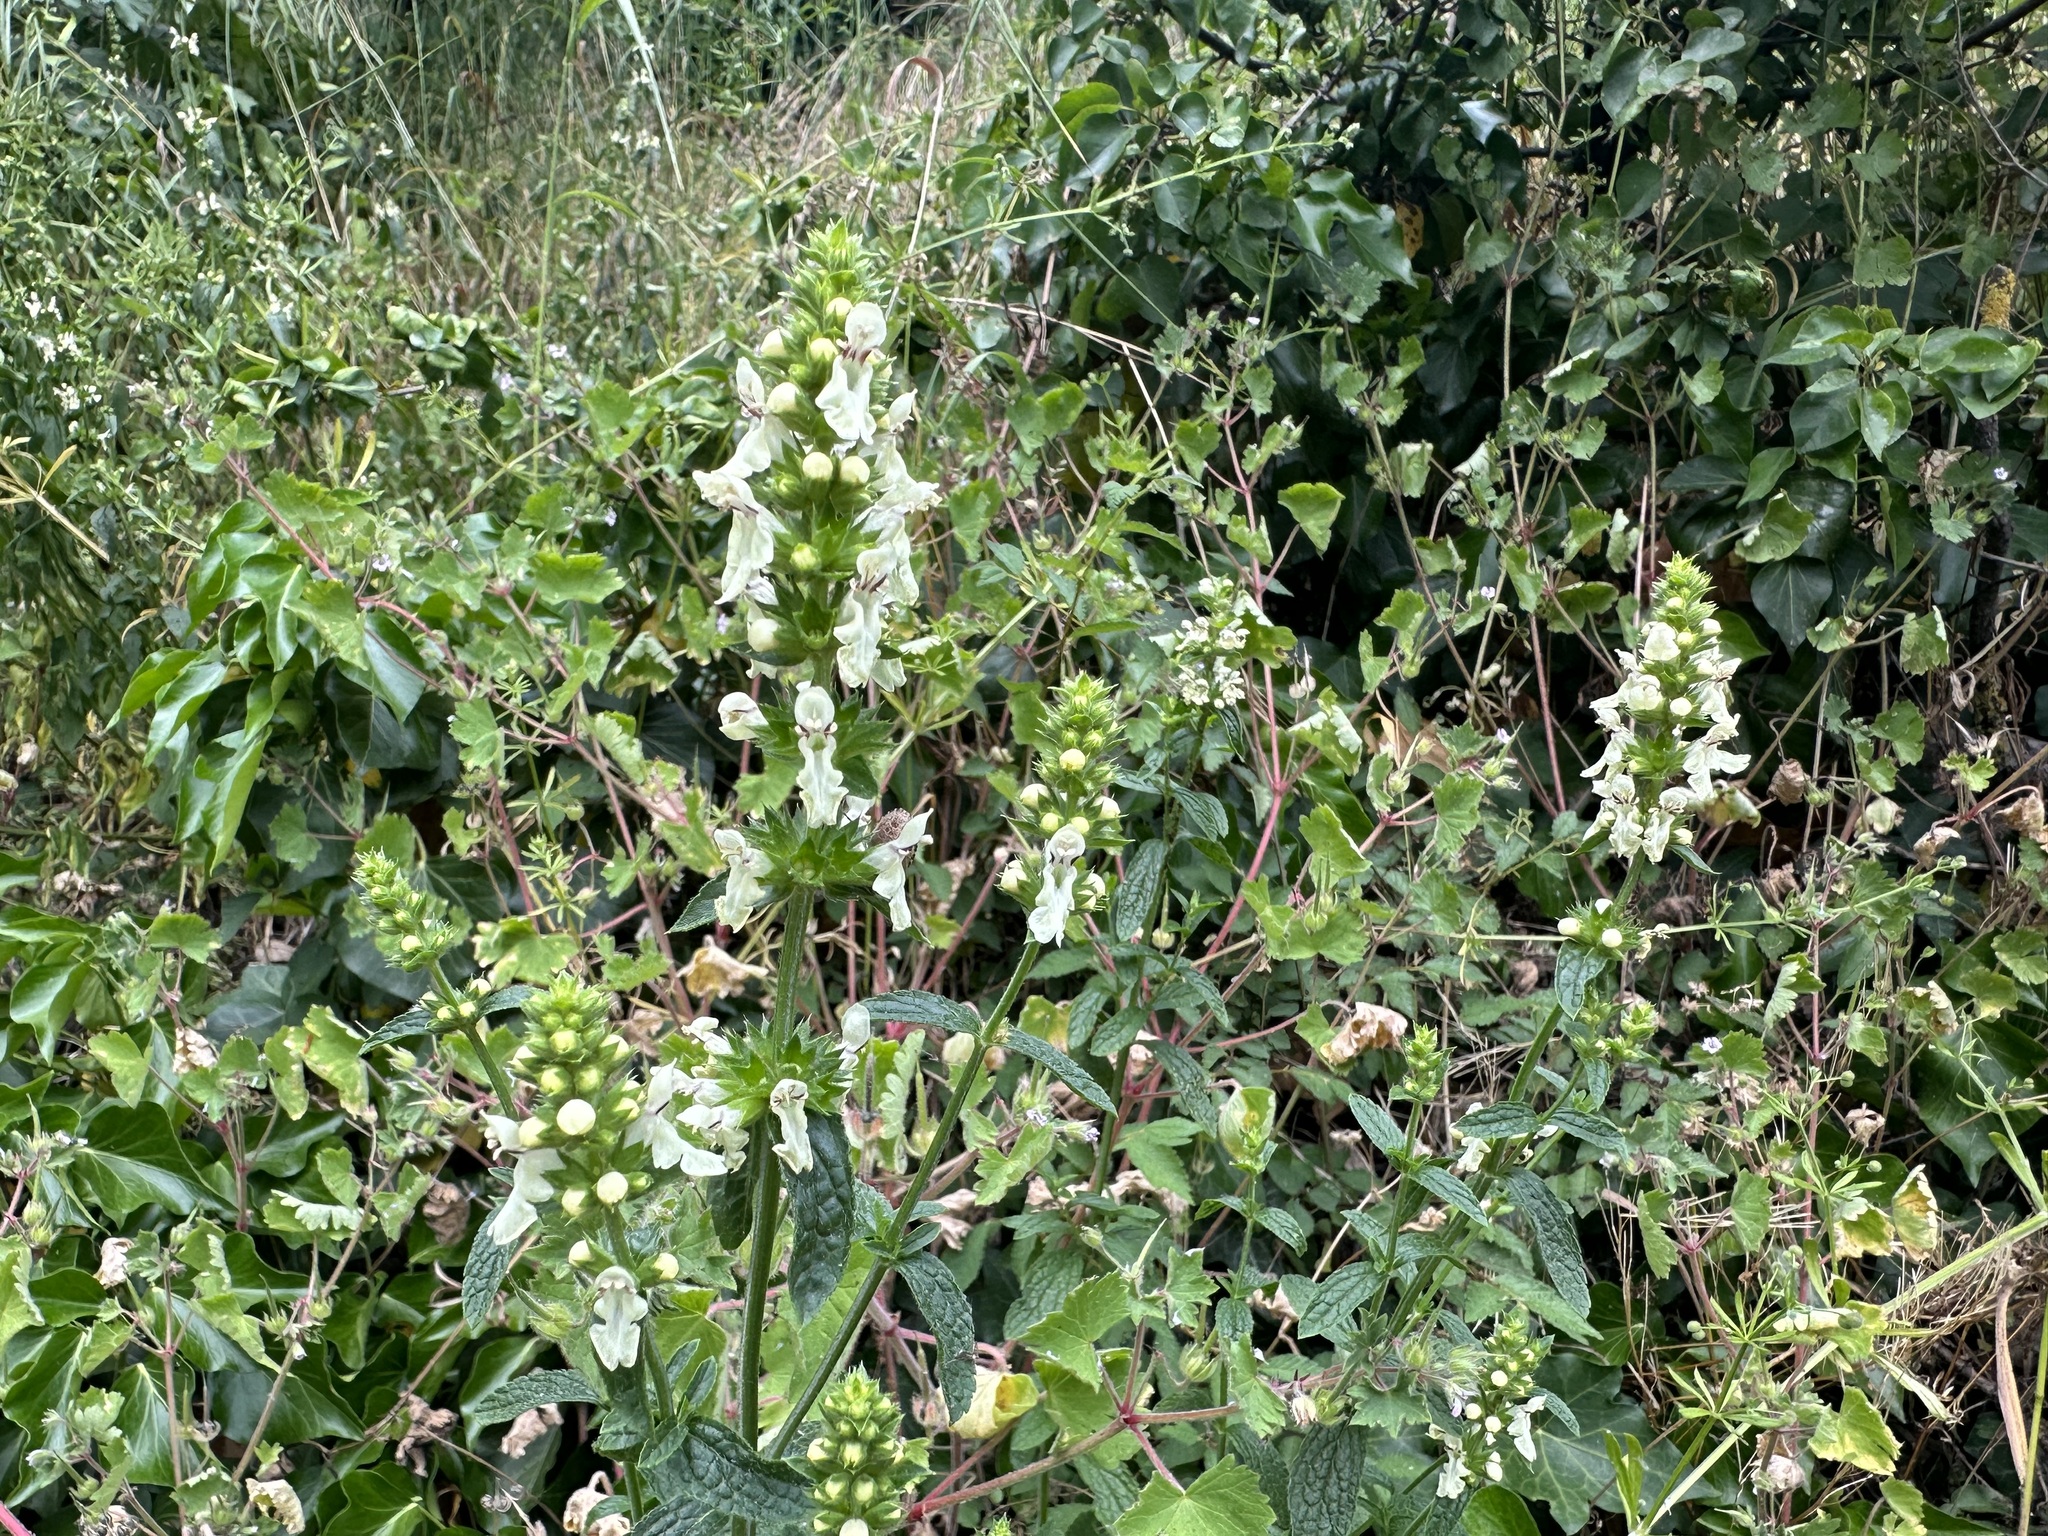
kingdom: Plantae
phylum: Tracheophyta
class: Magnoliopsida
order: Lamiales
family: Lamiaceae
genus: Stachys
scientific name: Stachys recta
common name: Perennial yellow-woundwort
